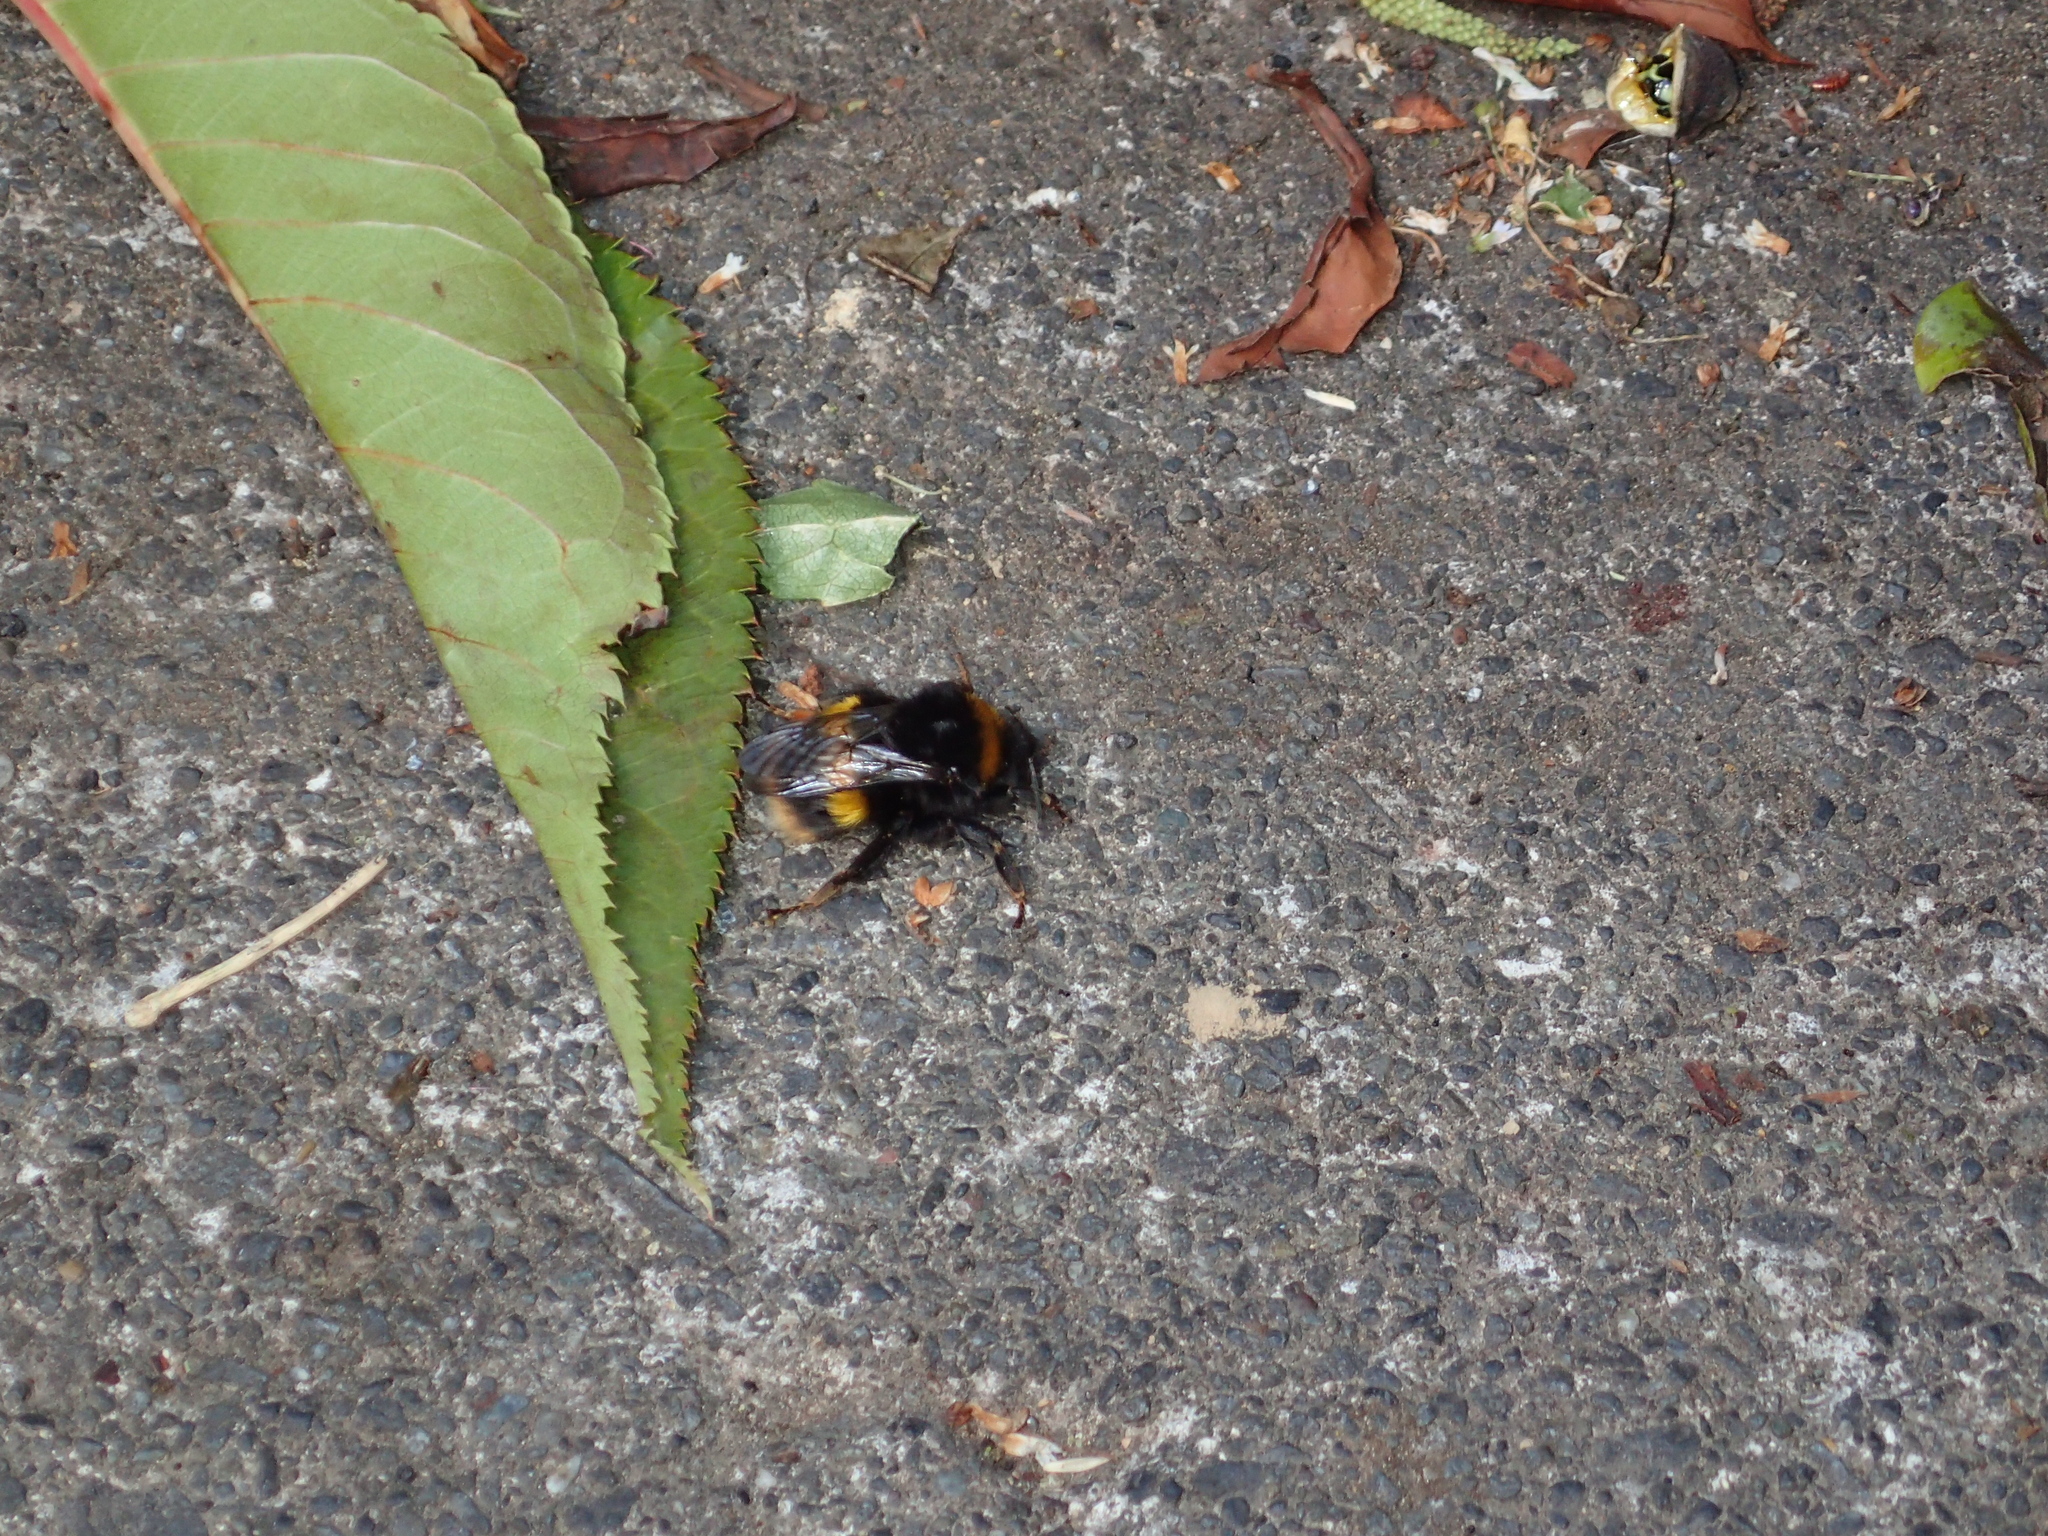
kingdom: Animalia
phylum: Arthropoda
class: Insecta
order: Hymenoptera
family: Apidae
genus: Bombus
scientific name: Bombus terrestris
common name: Buff-tailed bumblebee
